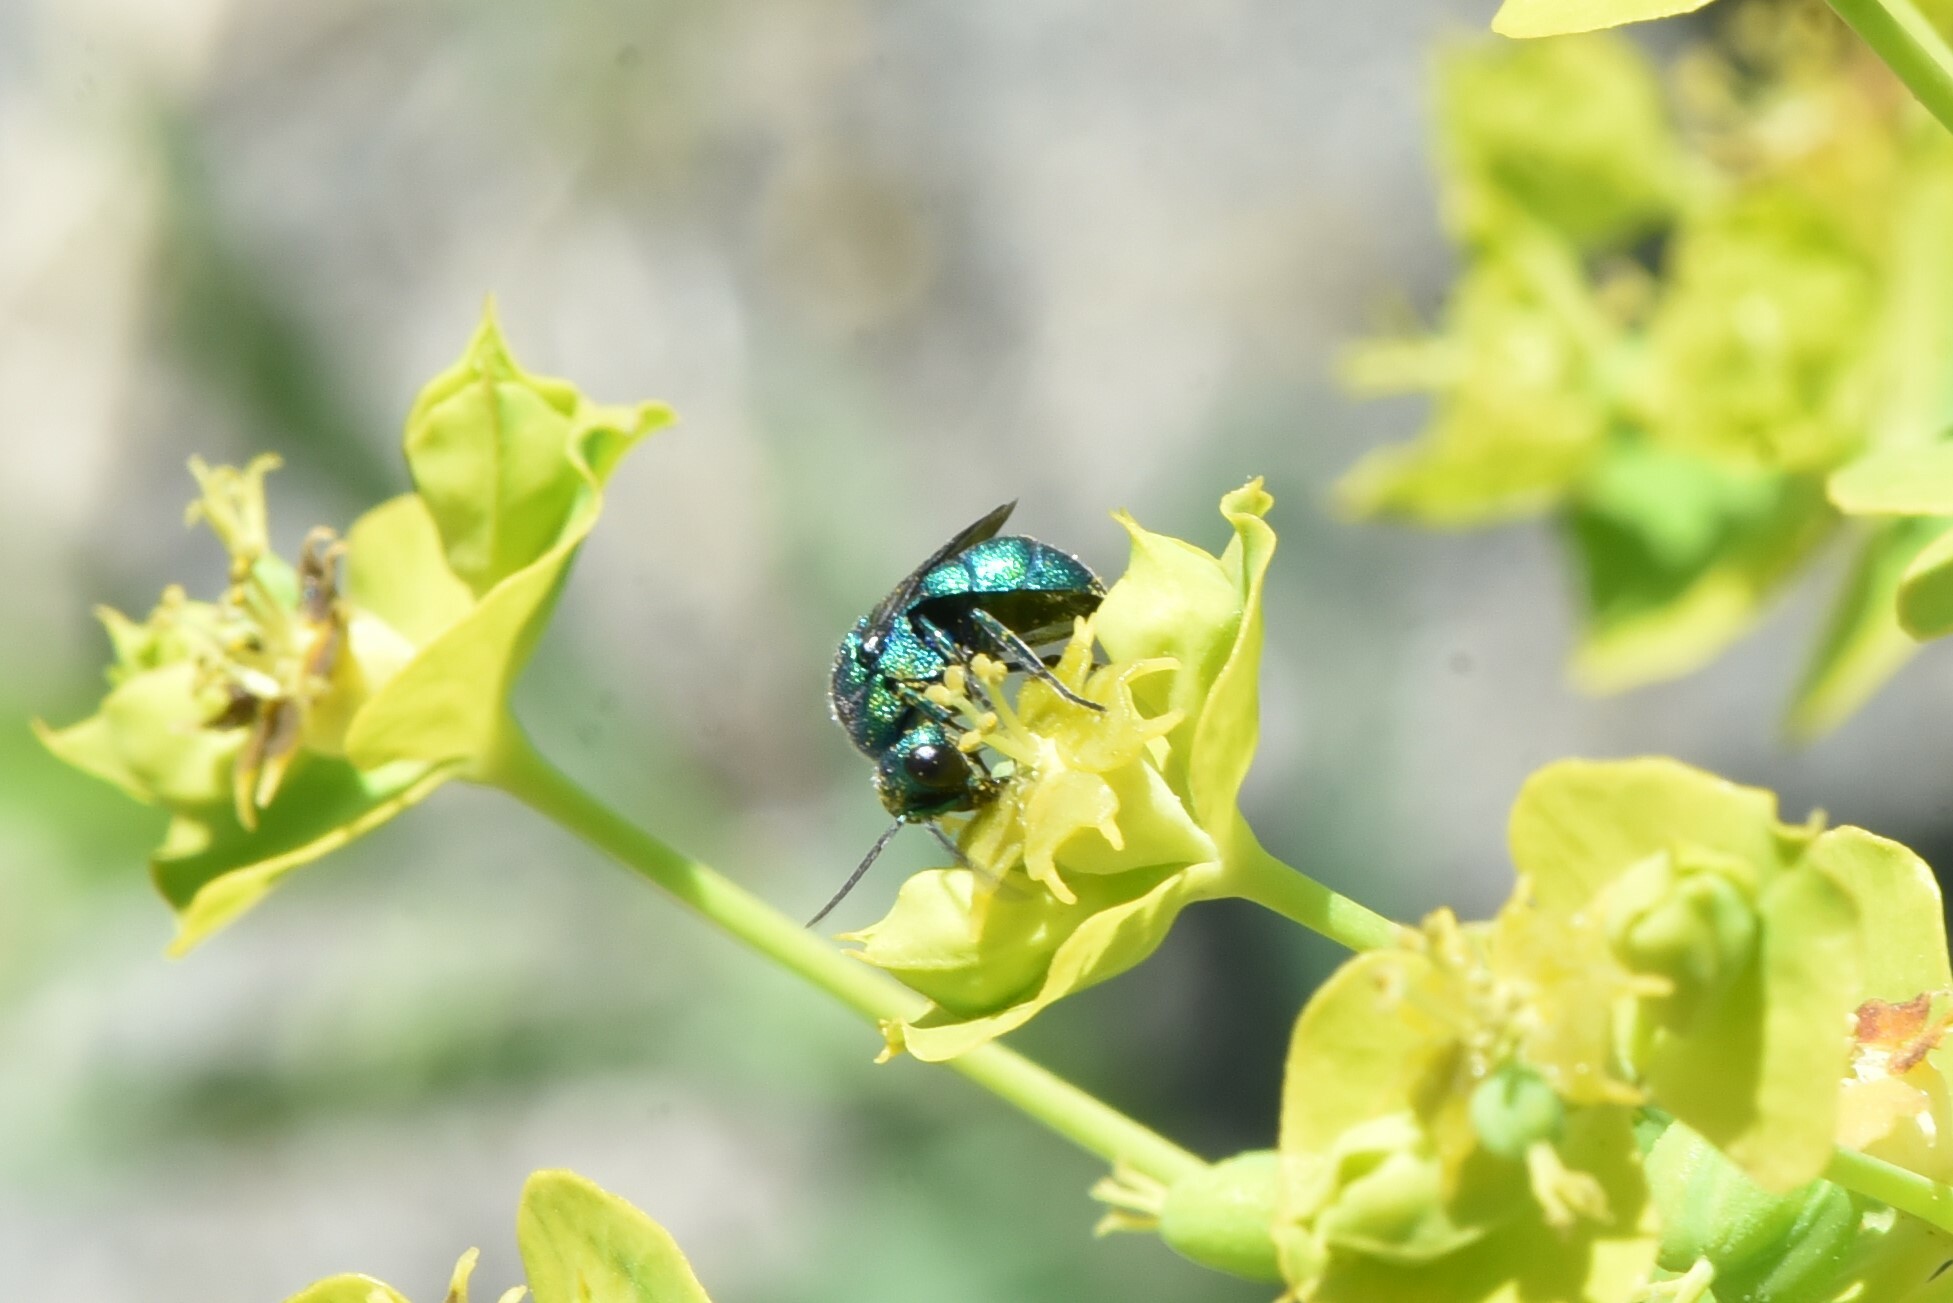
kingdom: Animalia
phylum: Arthropoda
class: Insecta
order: Hymenoptera
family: Chrysididae
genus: Holopyga
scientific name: Holopyga
